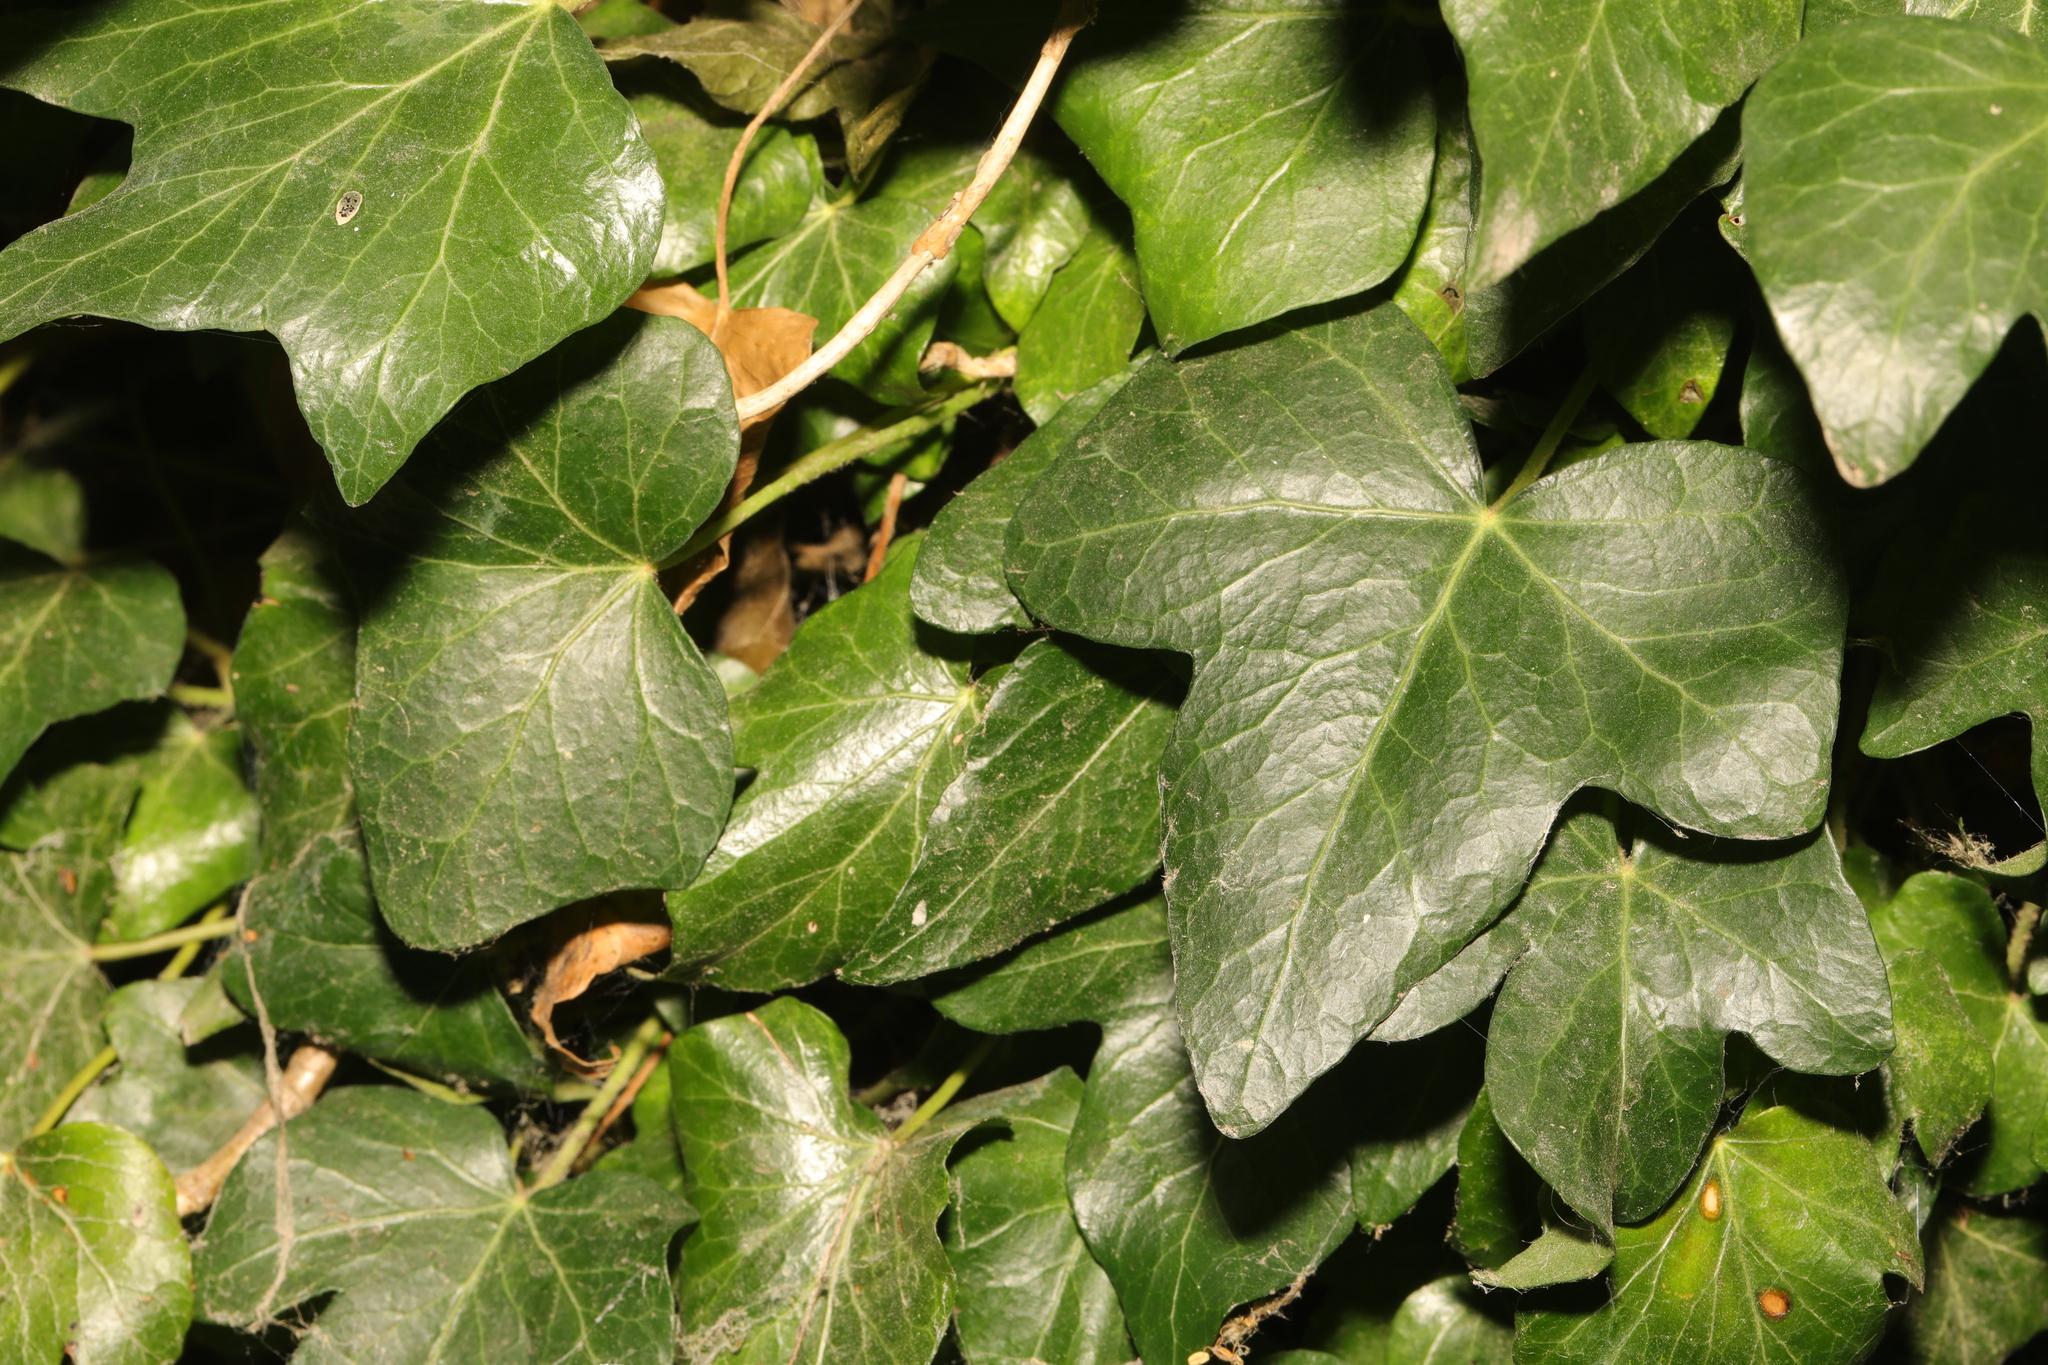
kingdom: Plantae
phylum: Tracheophyta
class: Magnoliopsida
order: Apiales
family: Araliaceae
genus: Hedera
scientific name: Hedera helix
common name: Ivy
